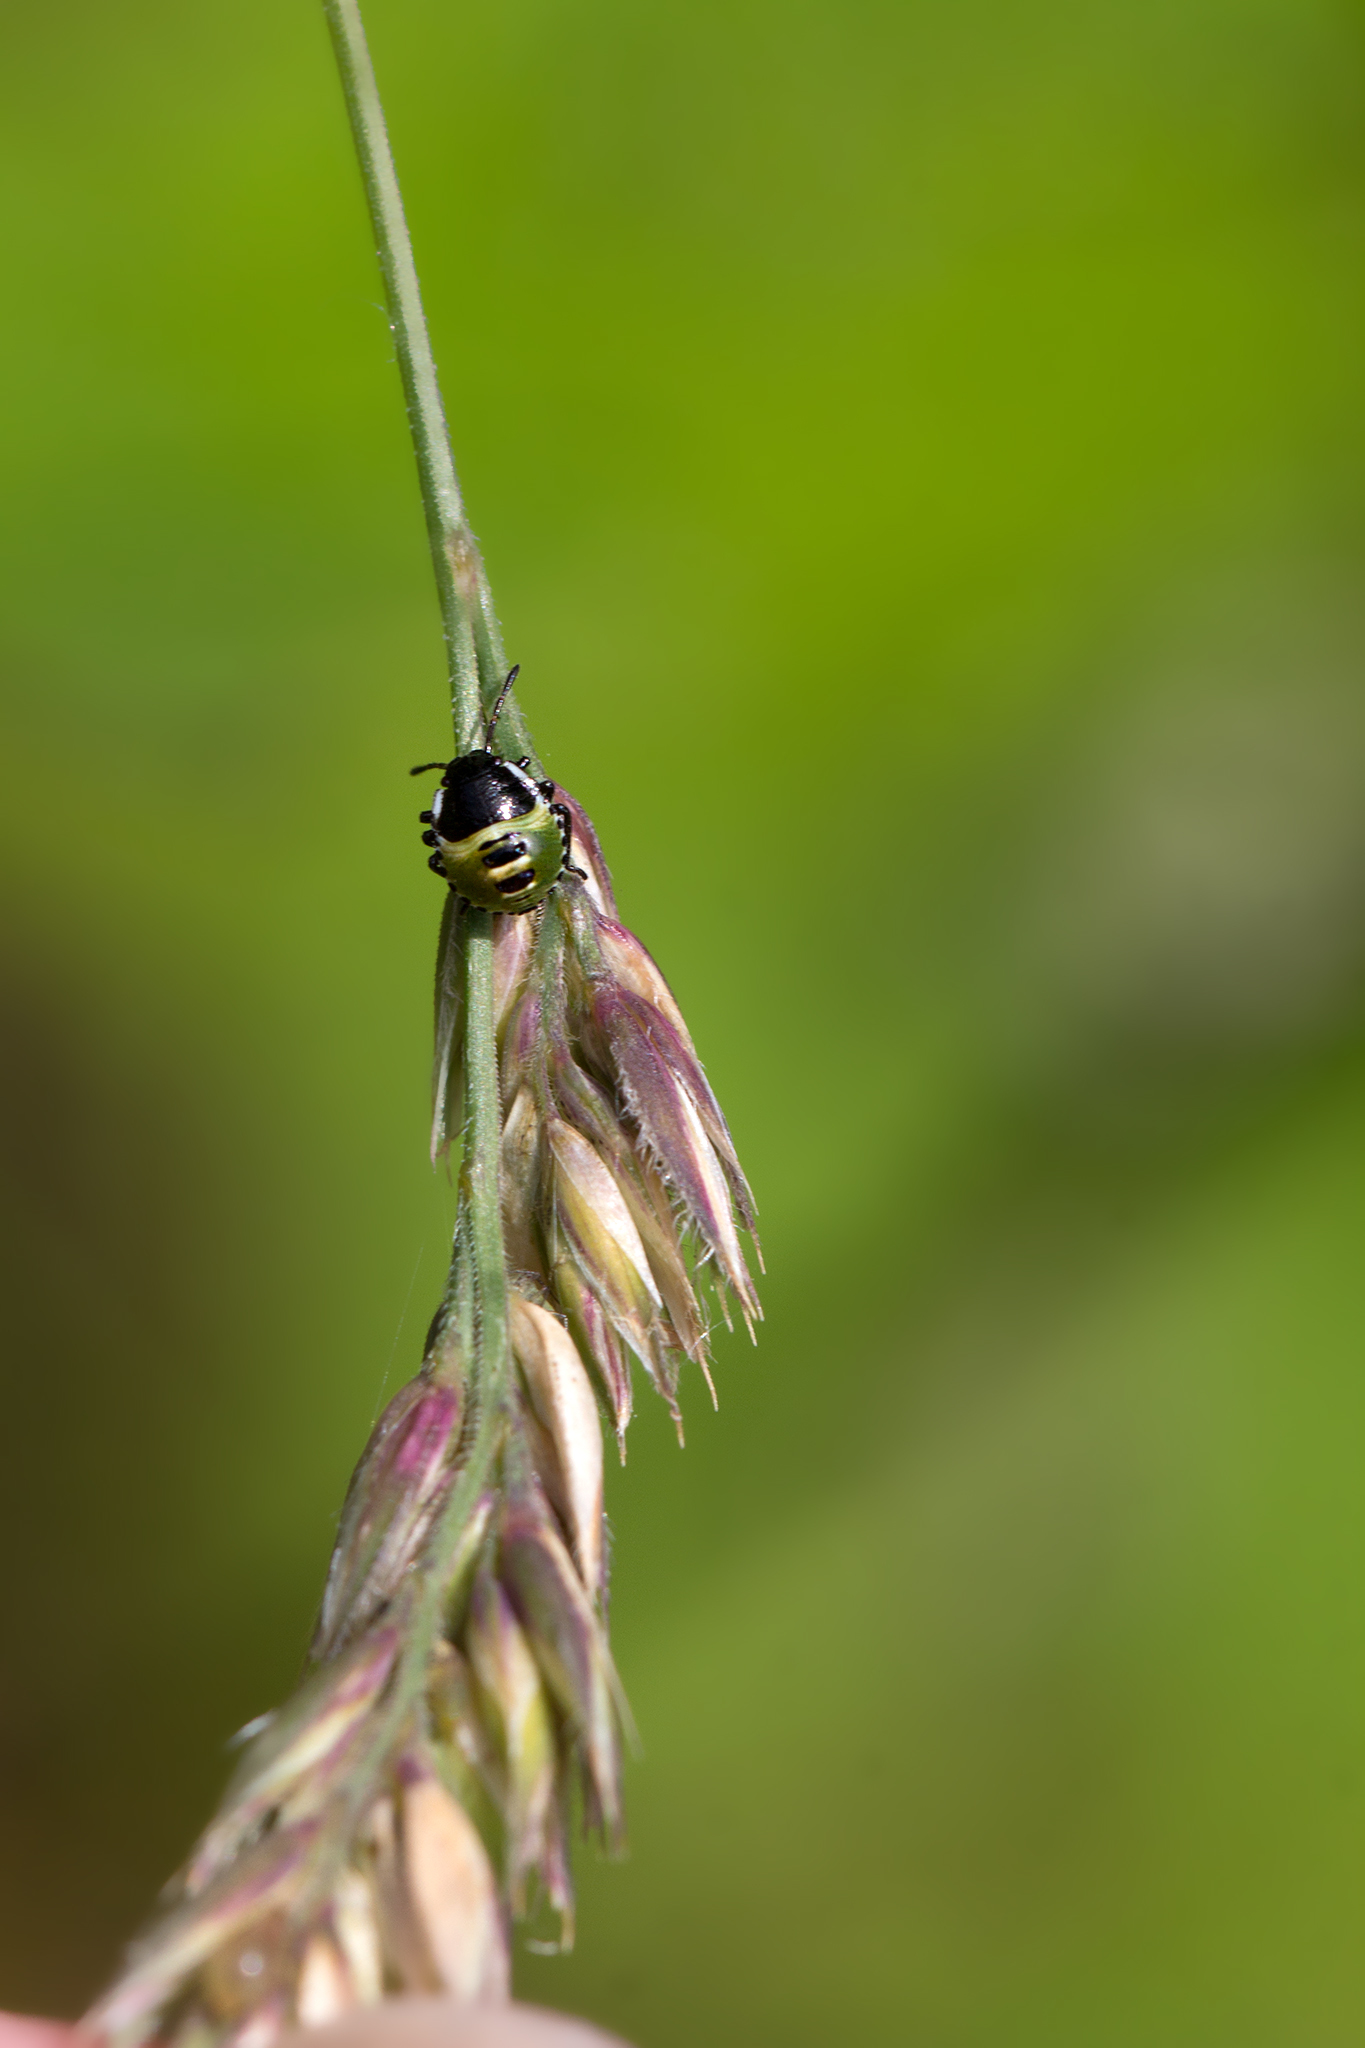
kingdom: Animalia
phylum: Arthropoda
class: Insecta
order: Hemiptera
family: Pentatomidae
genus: Palomena
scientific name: Palomena prasina
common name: Green shieldbug
